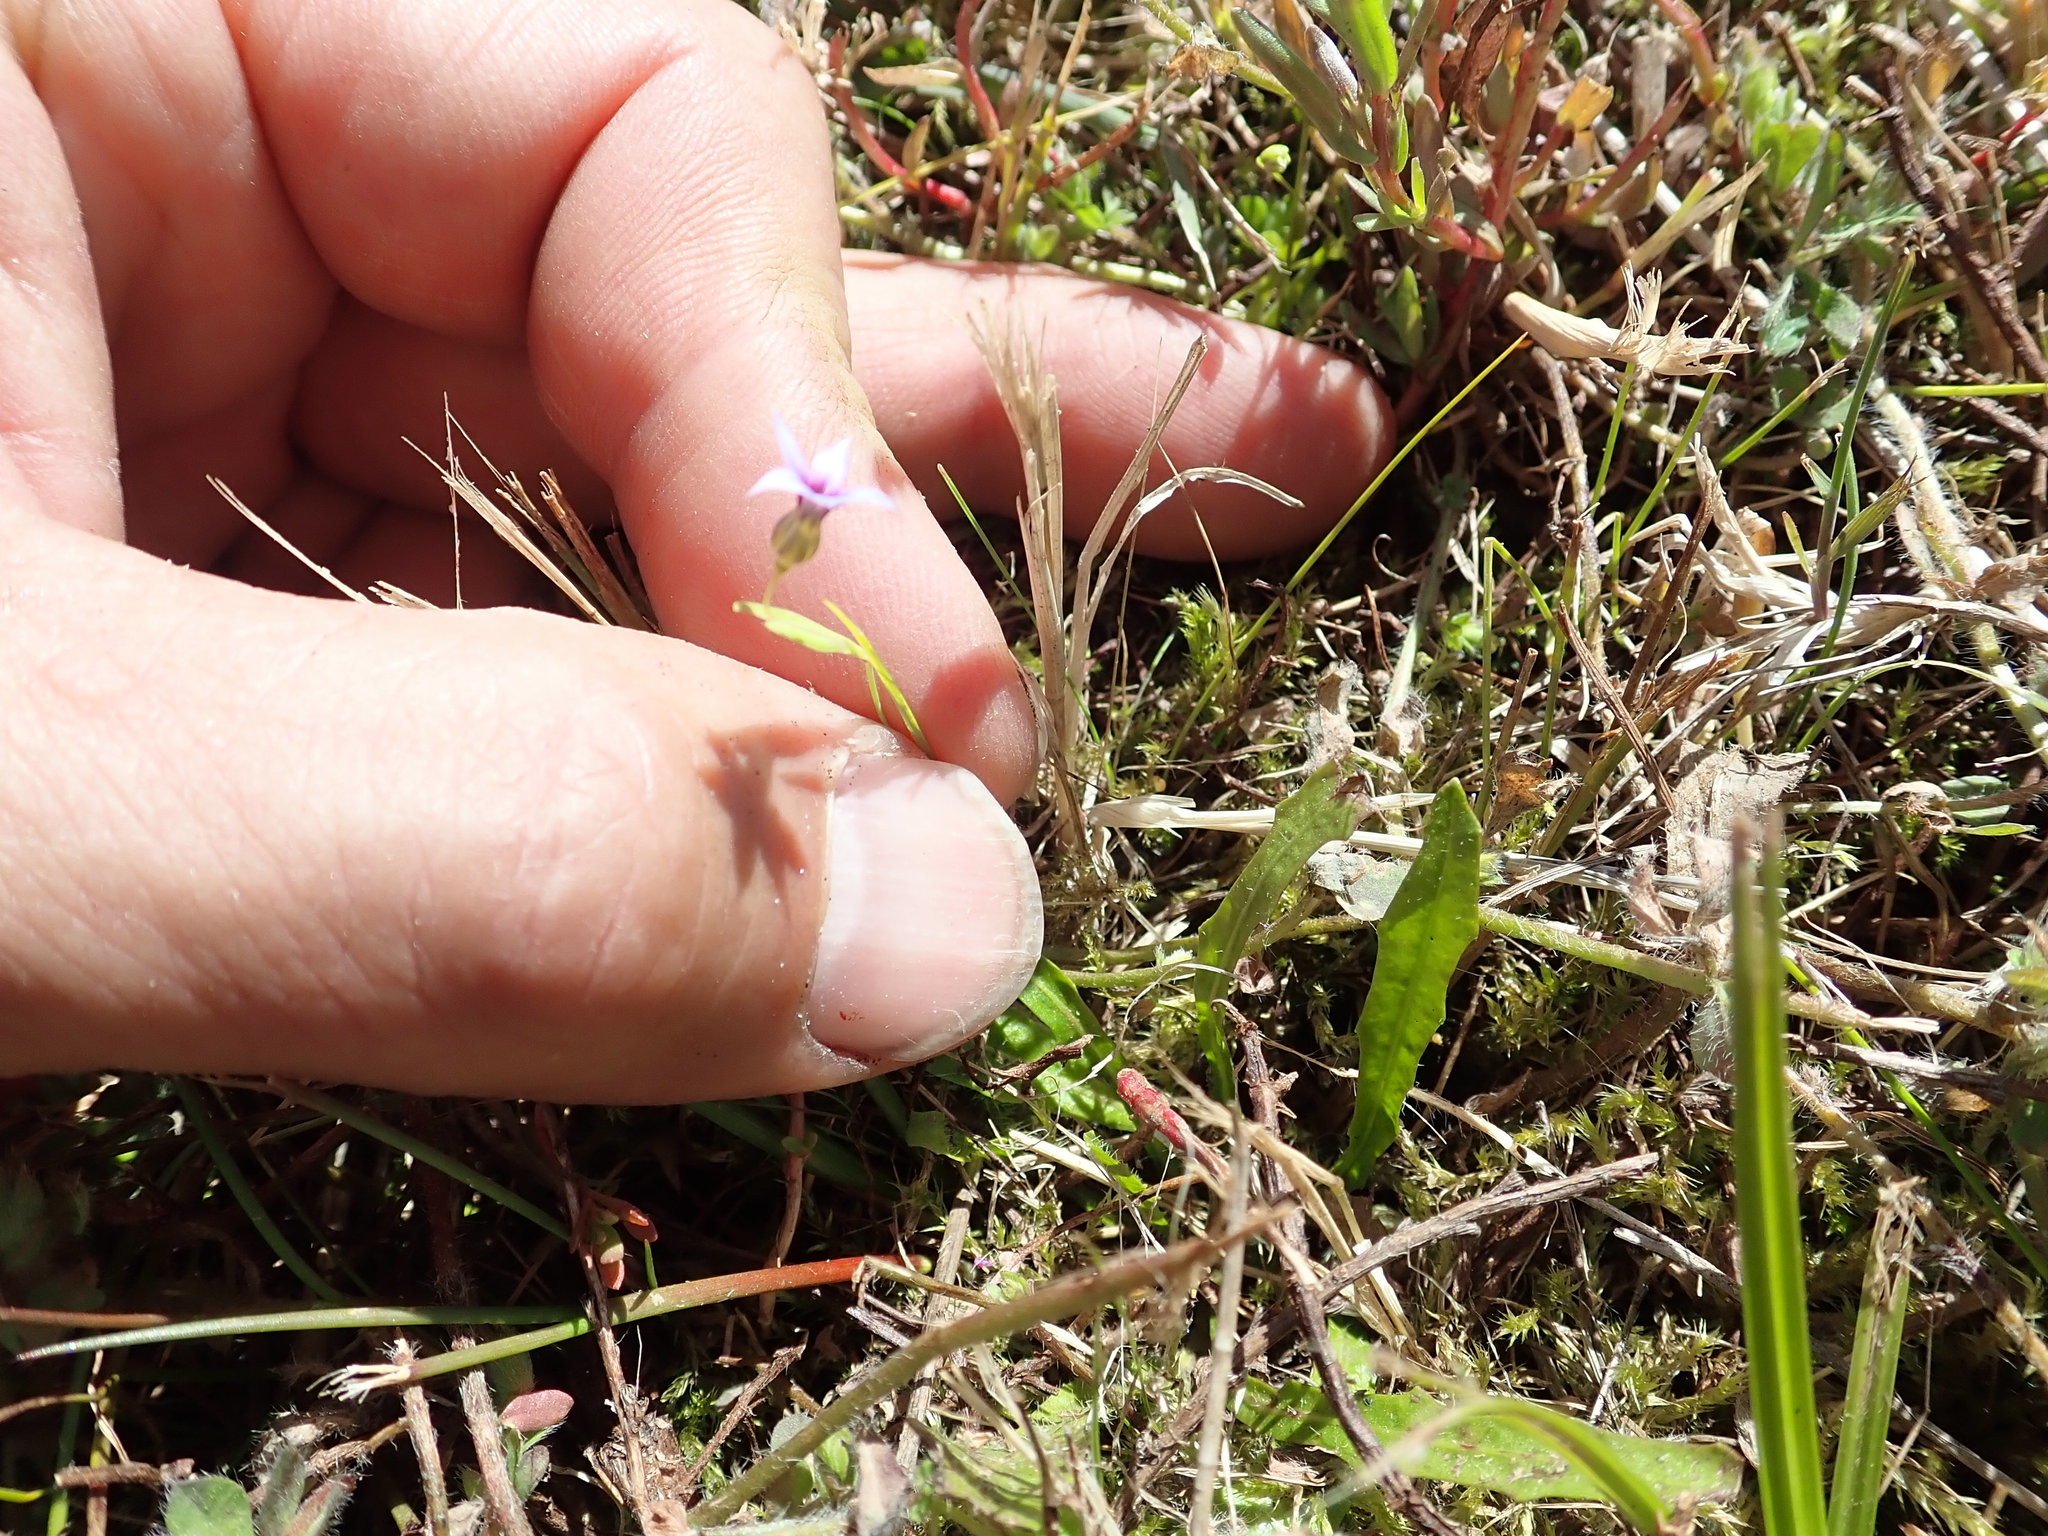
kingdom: Plantae
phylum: Tracheophyta
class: Liliopsida
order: Asparagales
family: Iridaceae
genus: Sisyrinchium
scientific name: Sisyrinchium micranthum
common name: Bermuda pigroot
